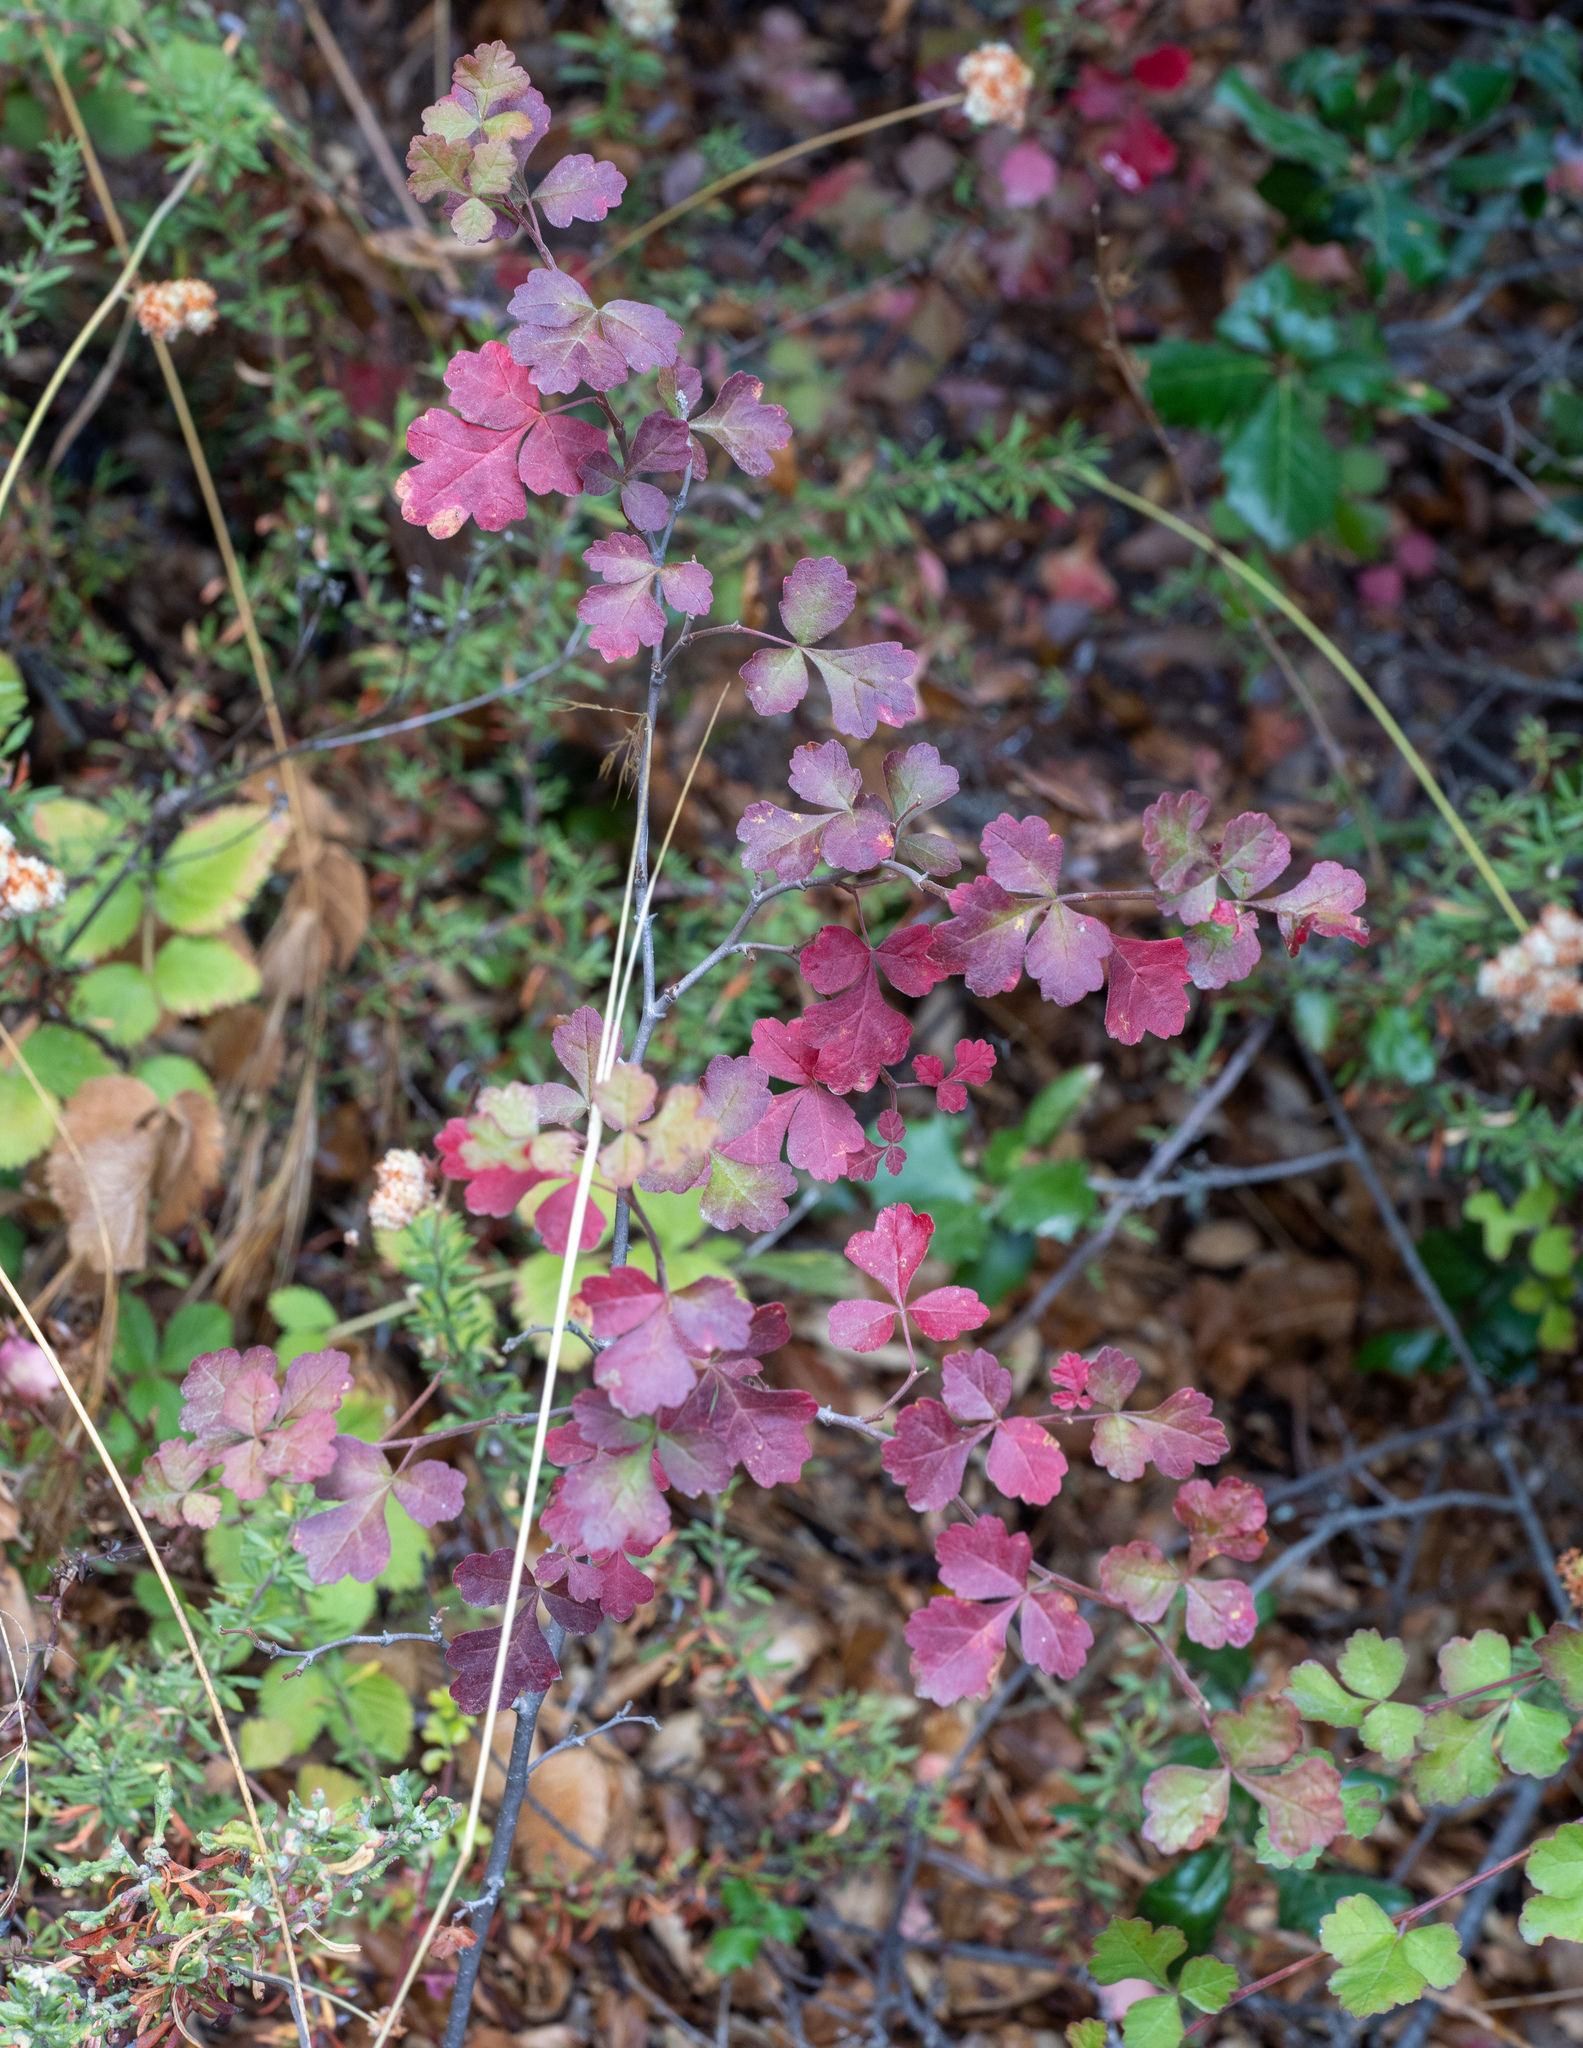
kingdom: Plantae
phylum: Tracheophyta
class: Magnoliopsida
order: Sapindales
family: Anacardiaceae
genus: Toxicodendron
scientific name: Toxicodendron diversilobum
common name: Pacific poison-oak
